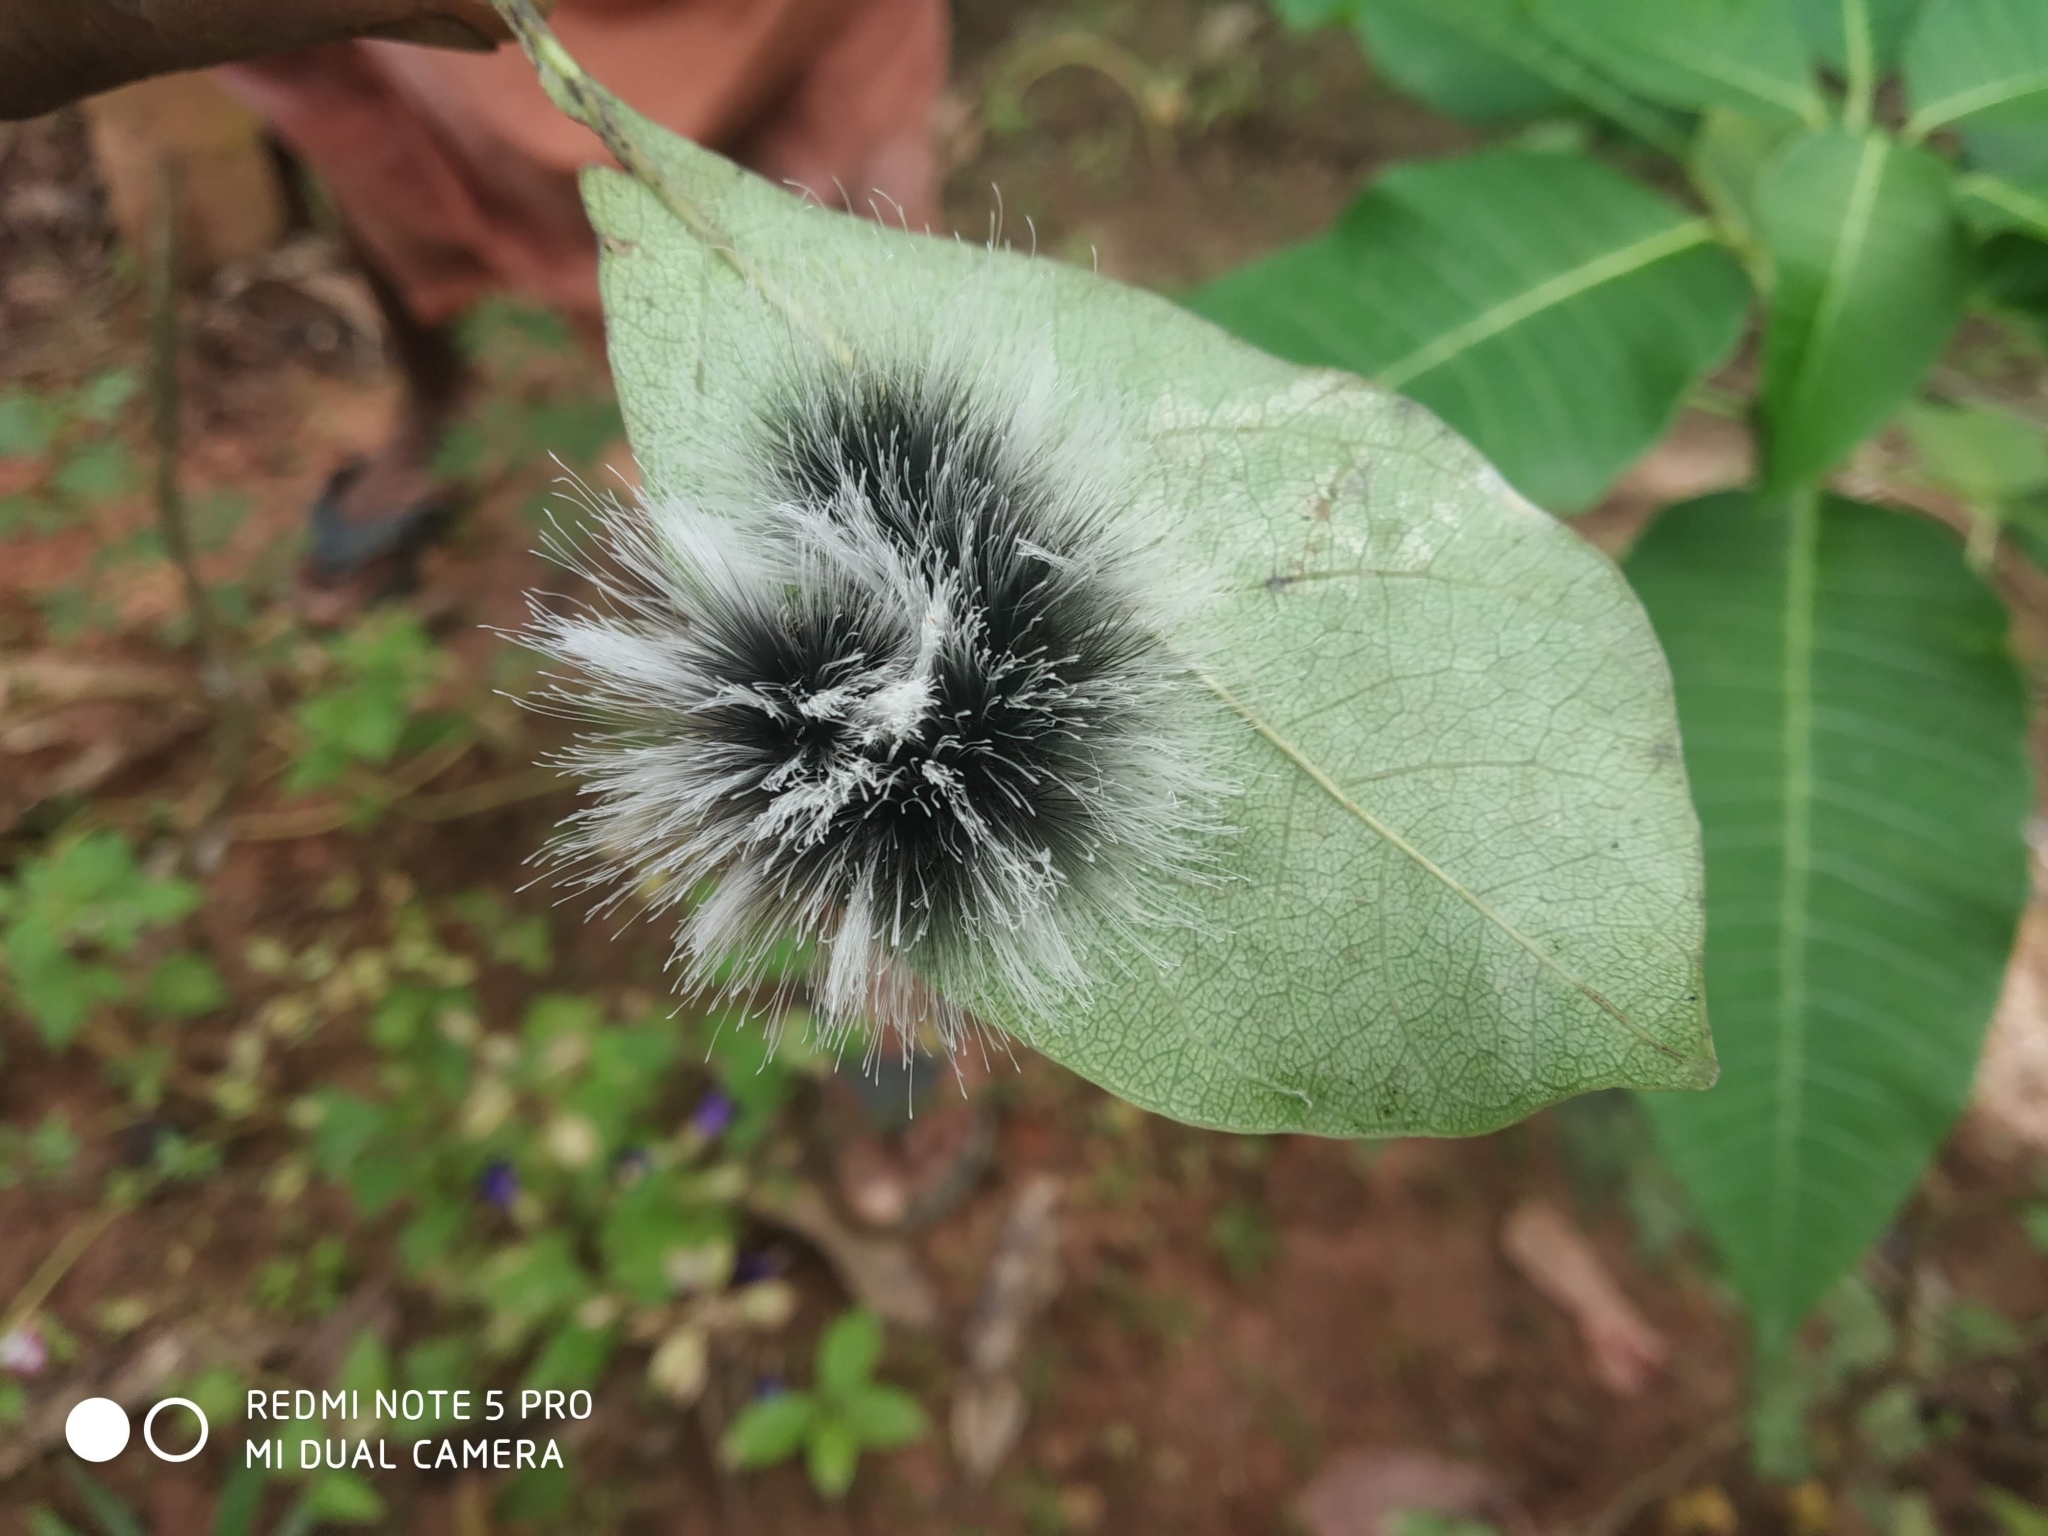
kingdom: Animalia
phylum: Arthropoda
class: Insecta
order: Lepidoptera
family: Erebidae
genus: Macrobrochis
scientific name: Macrobrochis gigas
